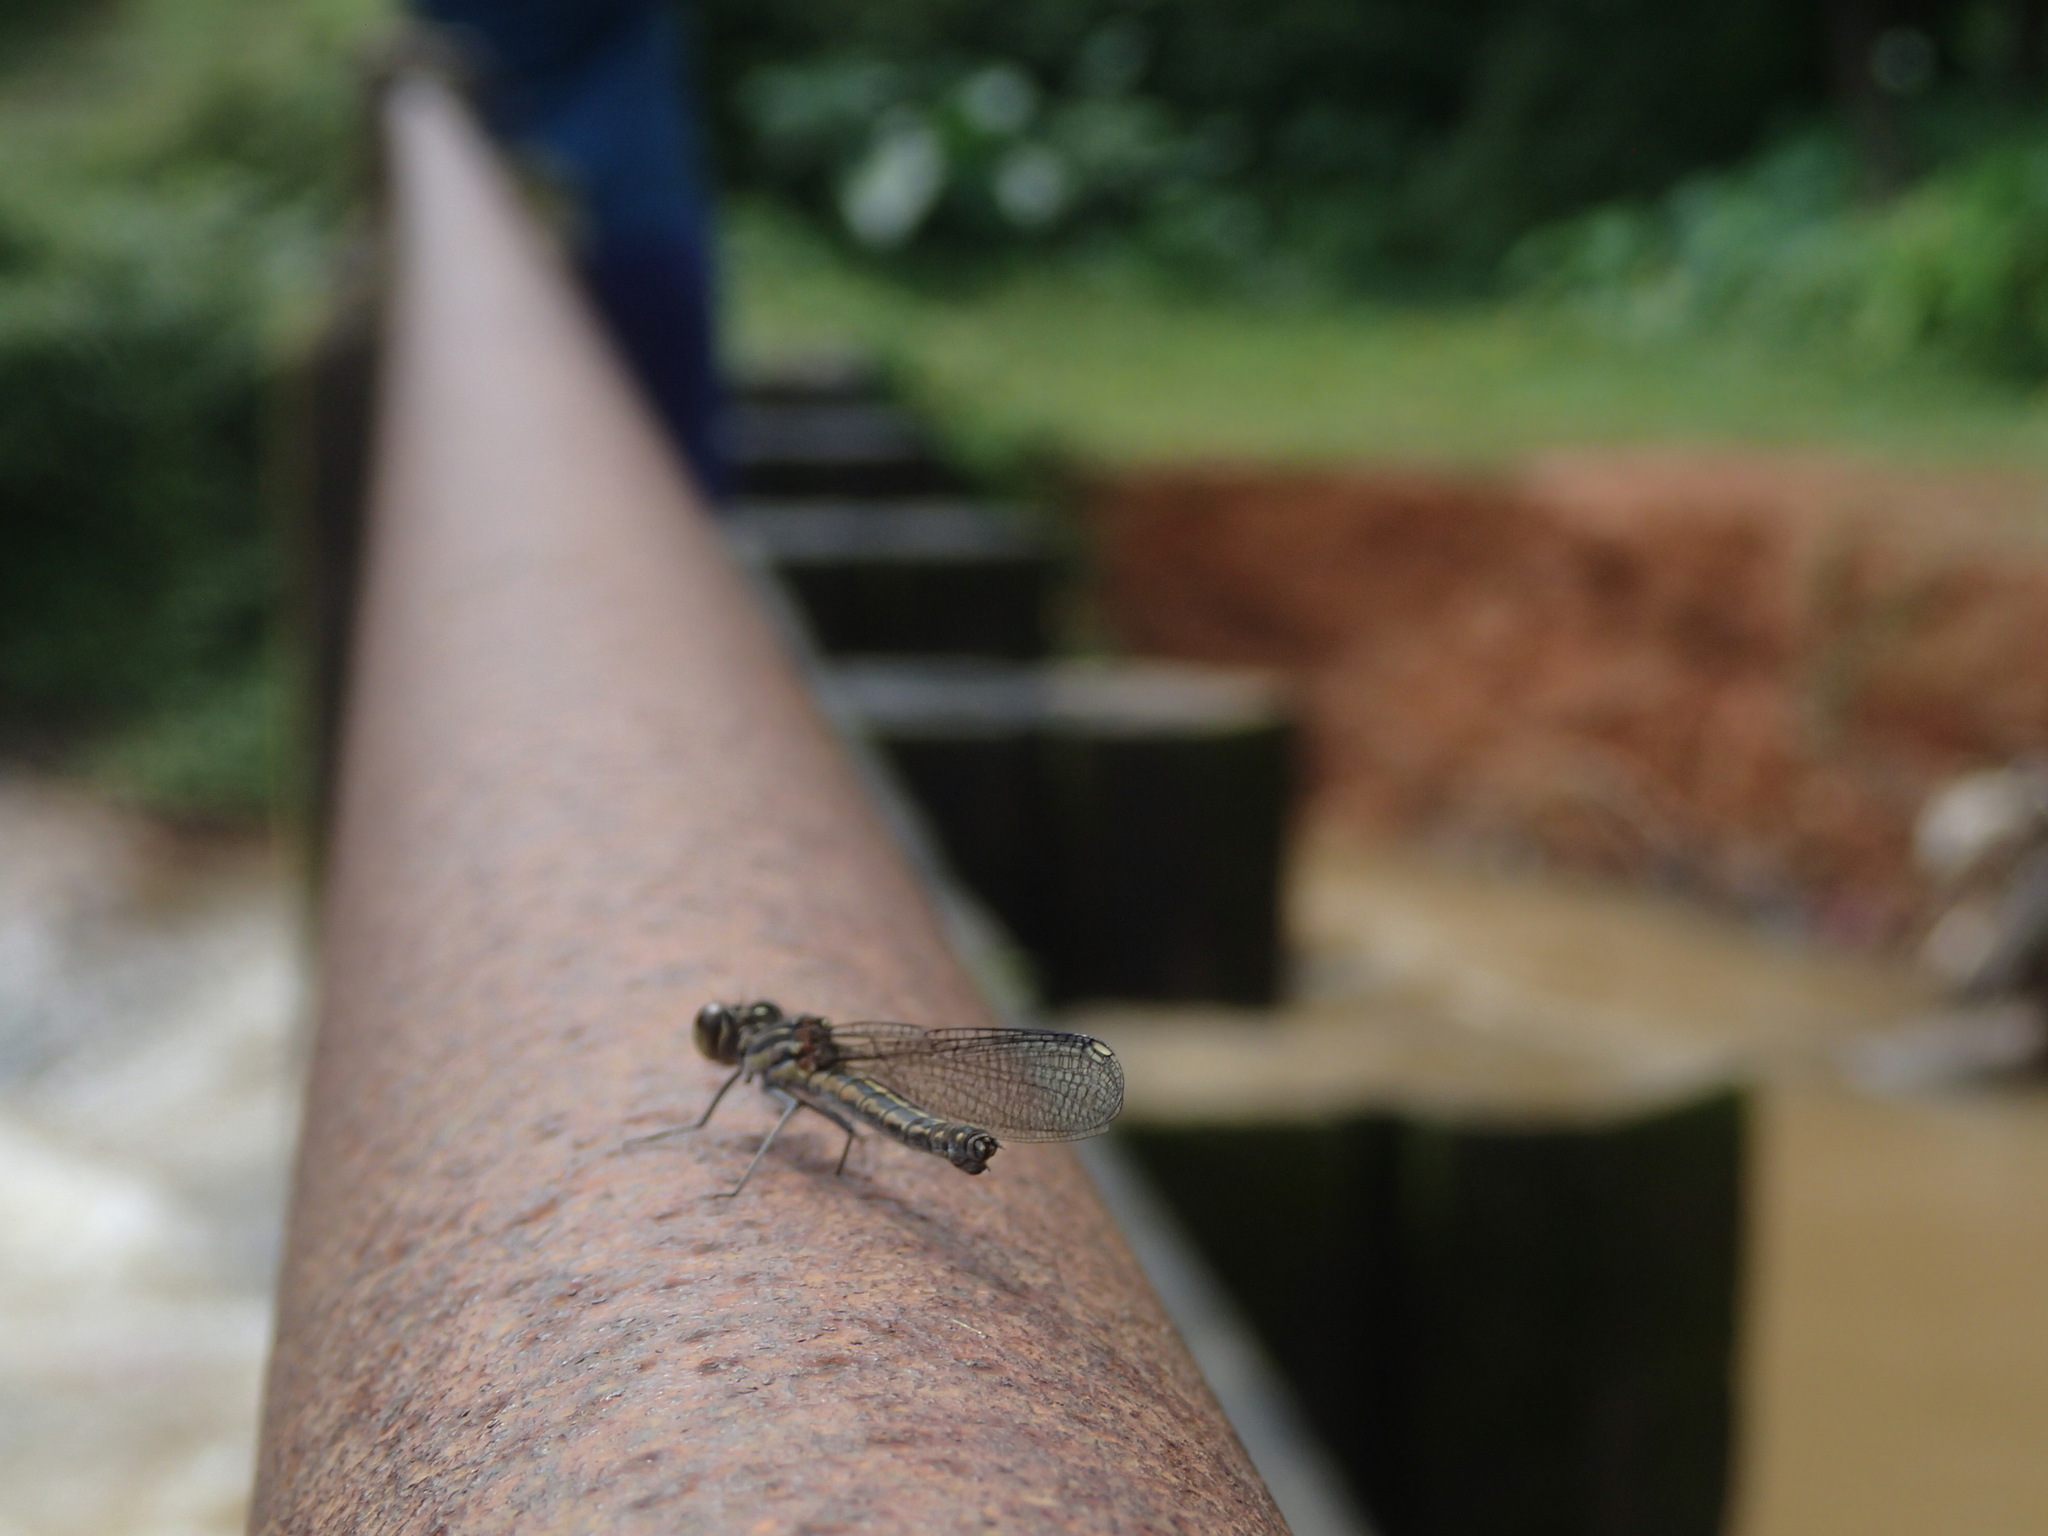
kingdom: Animalia
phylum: Arthropoda
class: Insecta
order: Odonata
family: Chlorocyphidae
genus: Libellago
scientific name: Libellago indica
